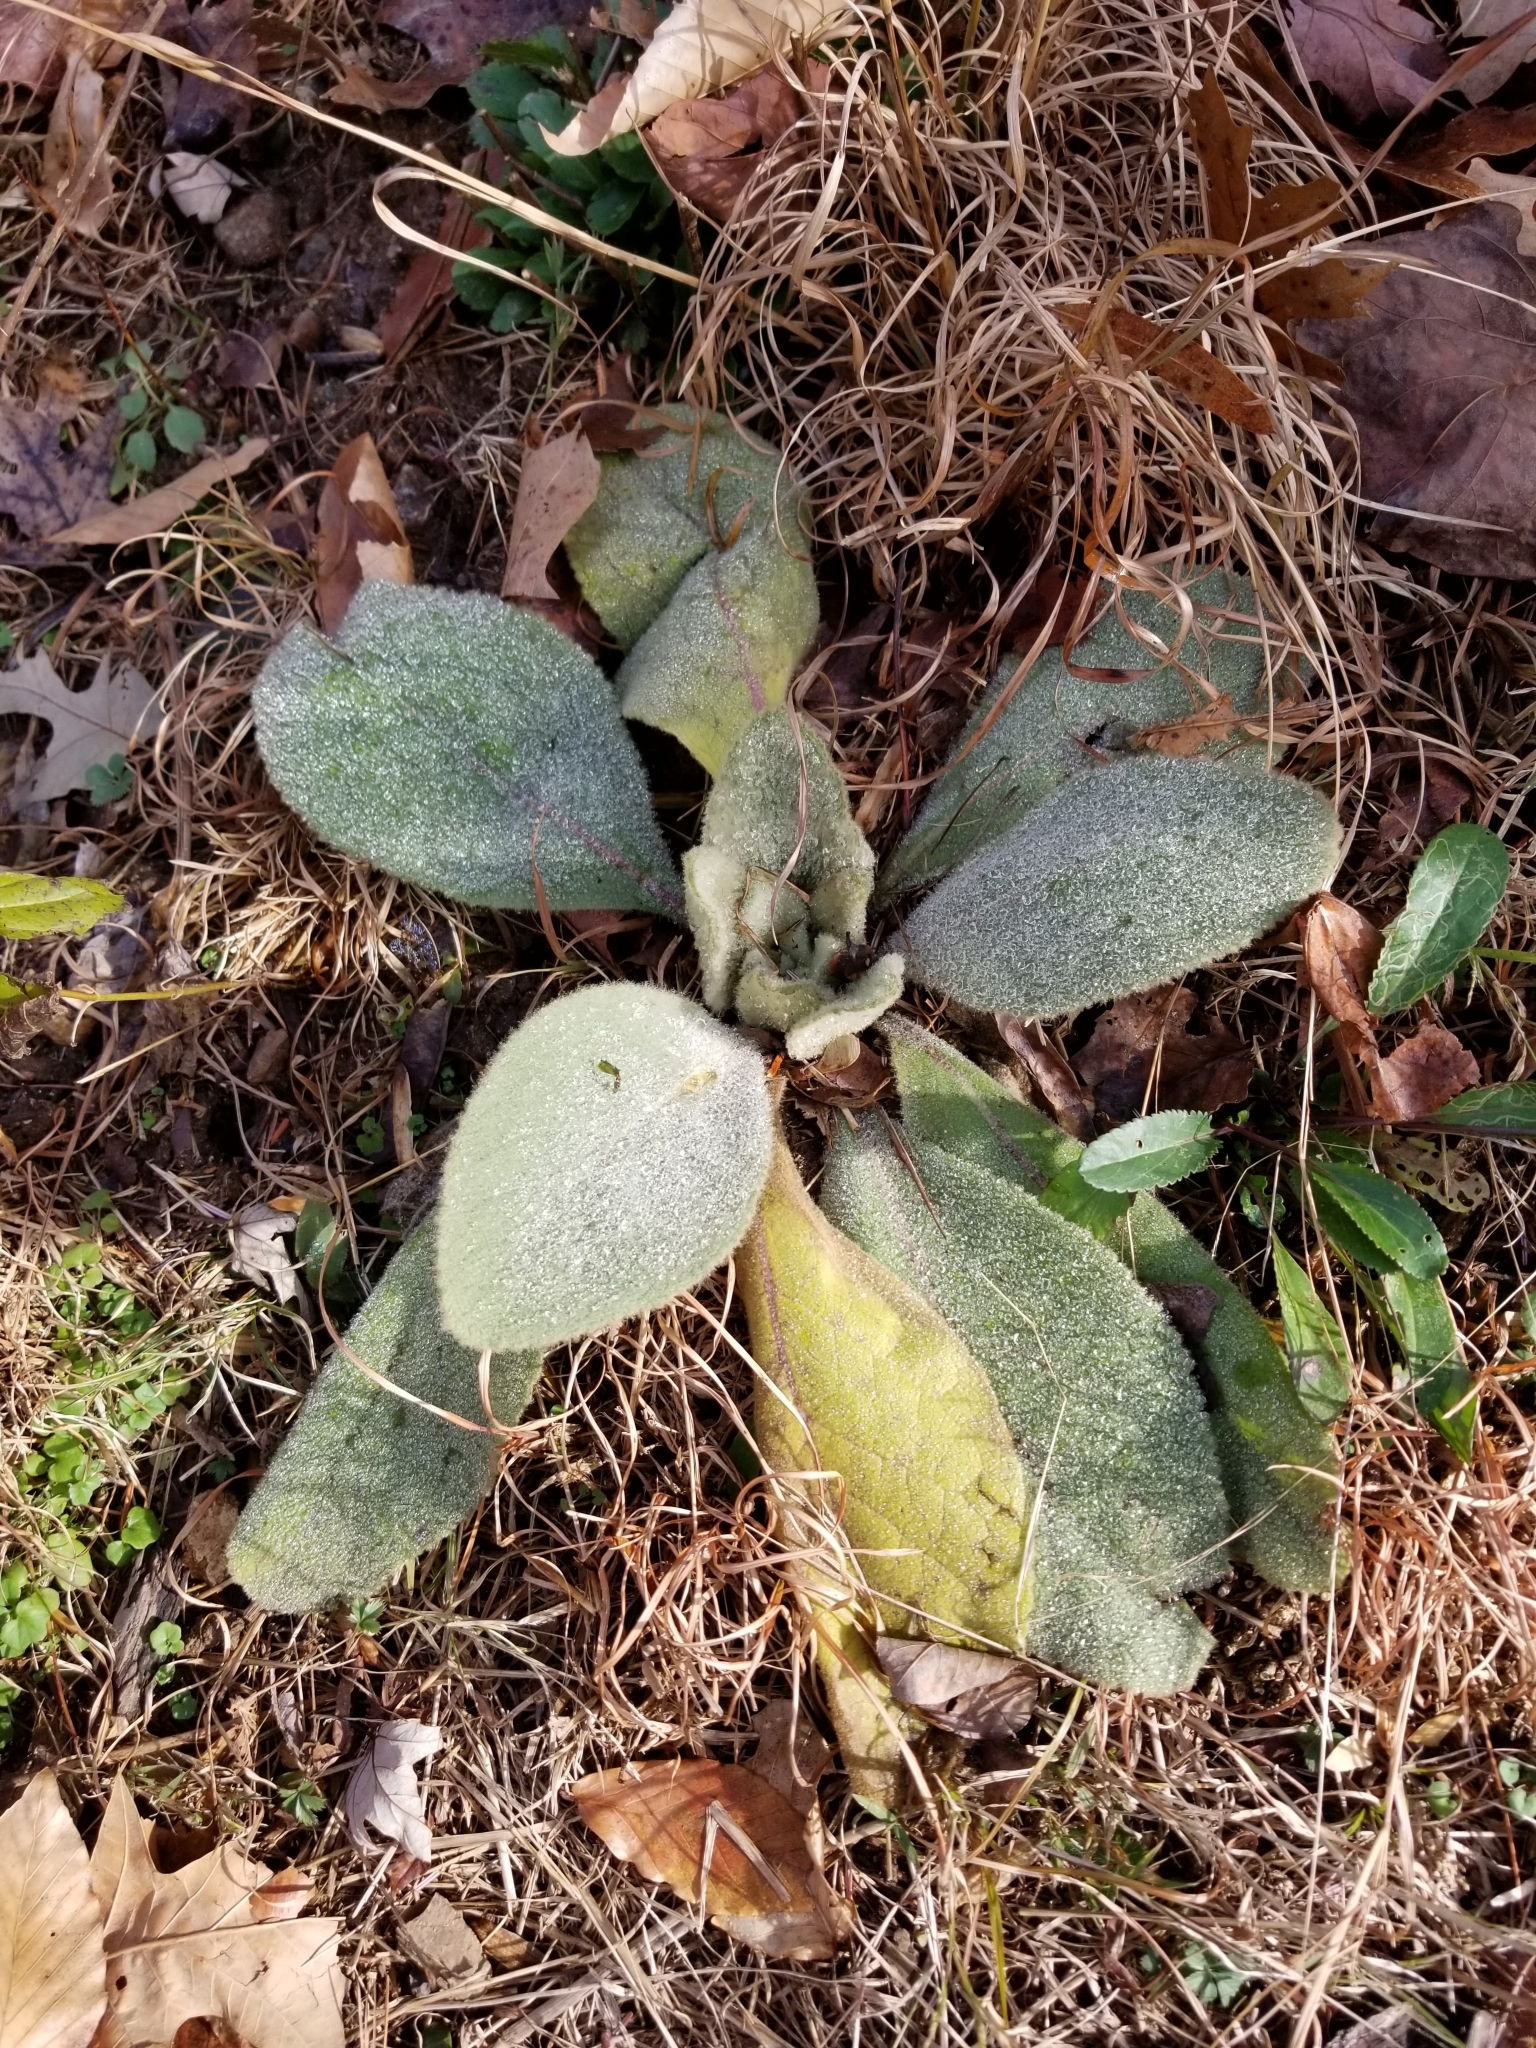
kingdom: Plantae
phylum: Tracheophyta
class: Magnoliopsida
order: Lamiales
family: Scrophulariaceae
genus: Verbascum
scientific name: Verbascum thapsus
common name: Common mullein
